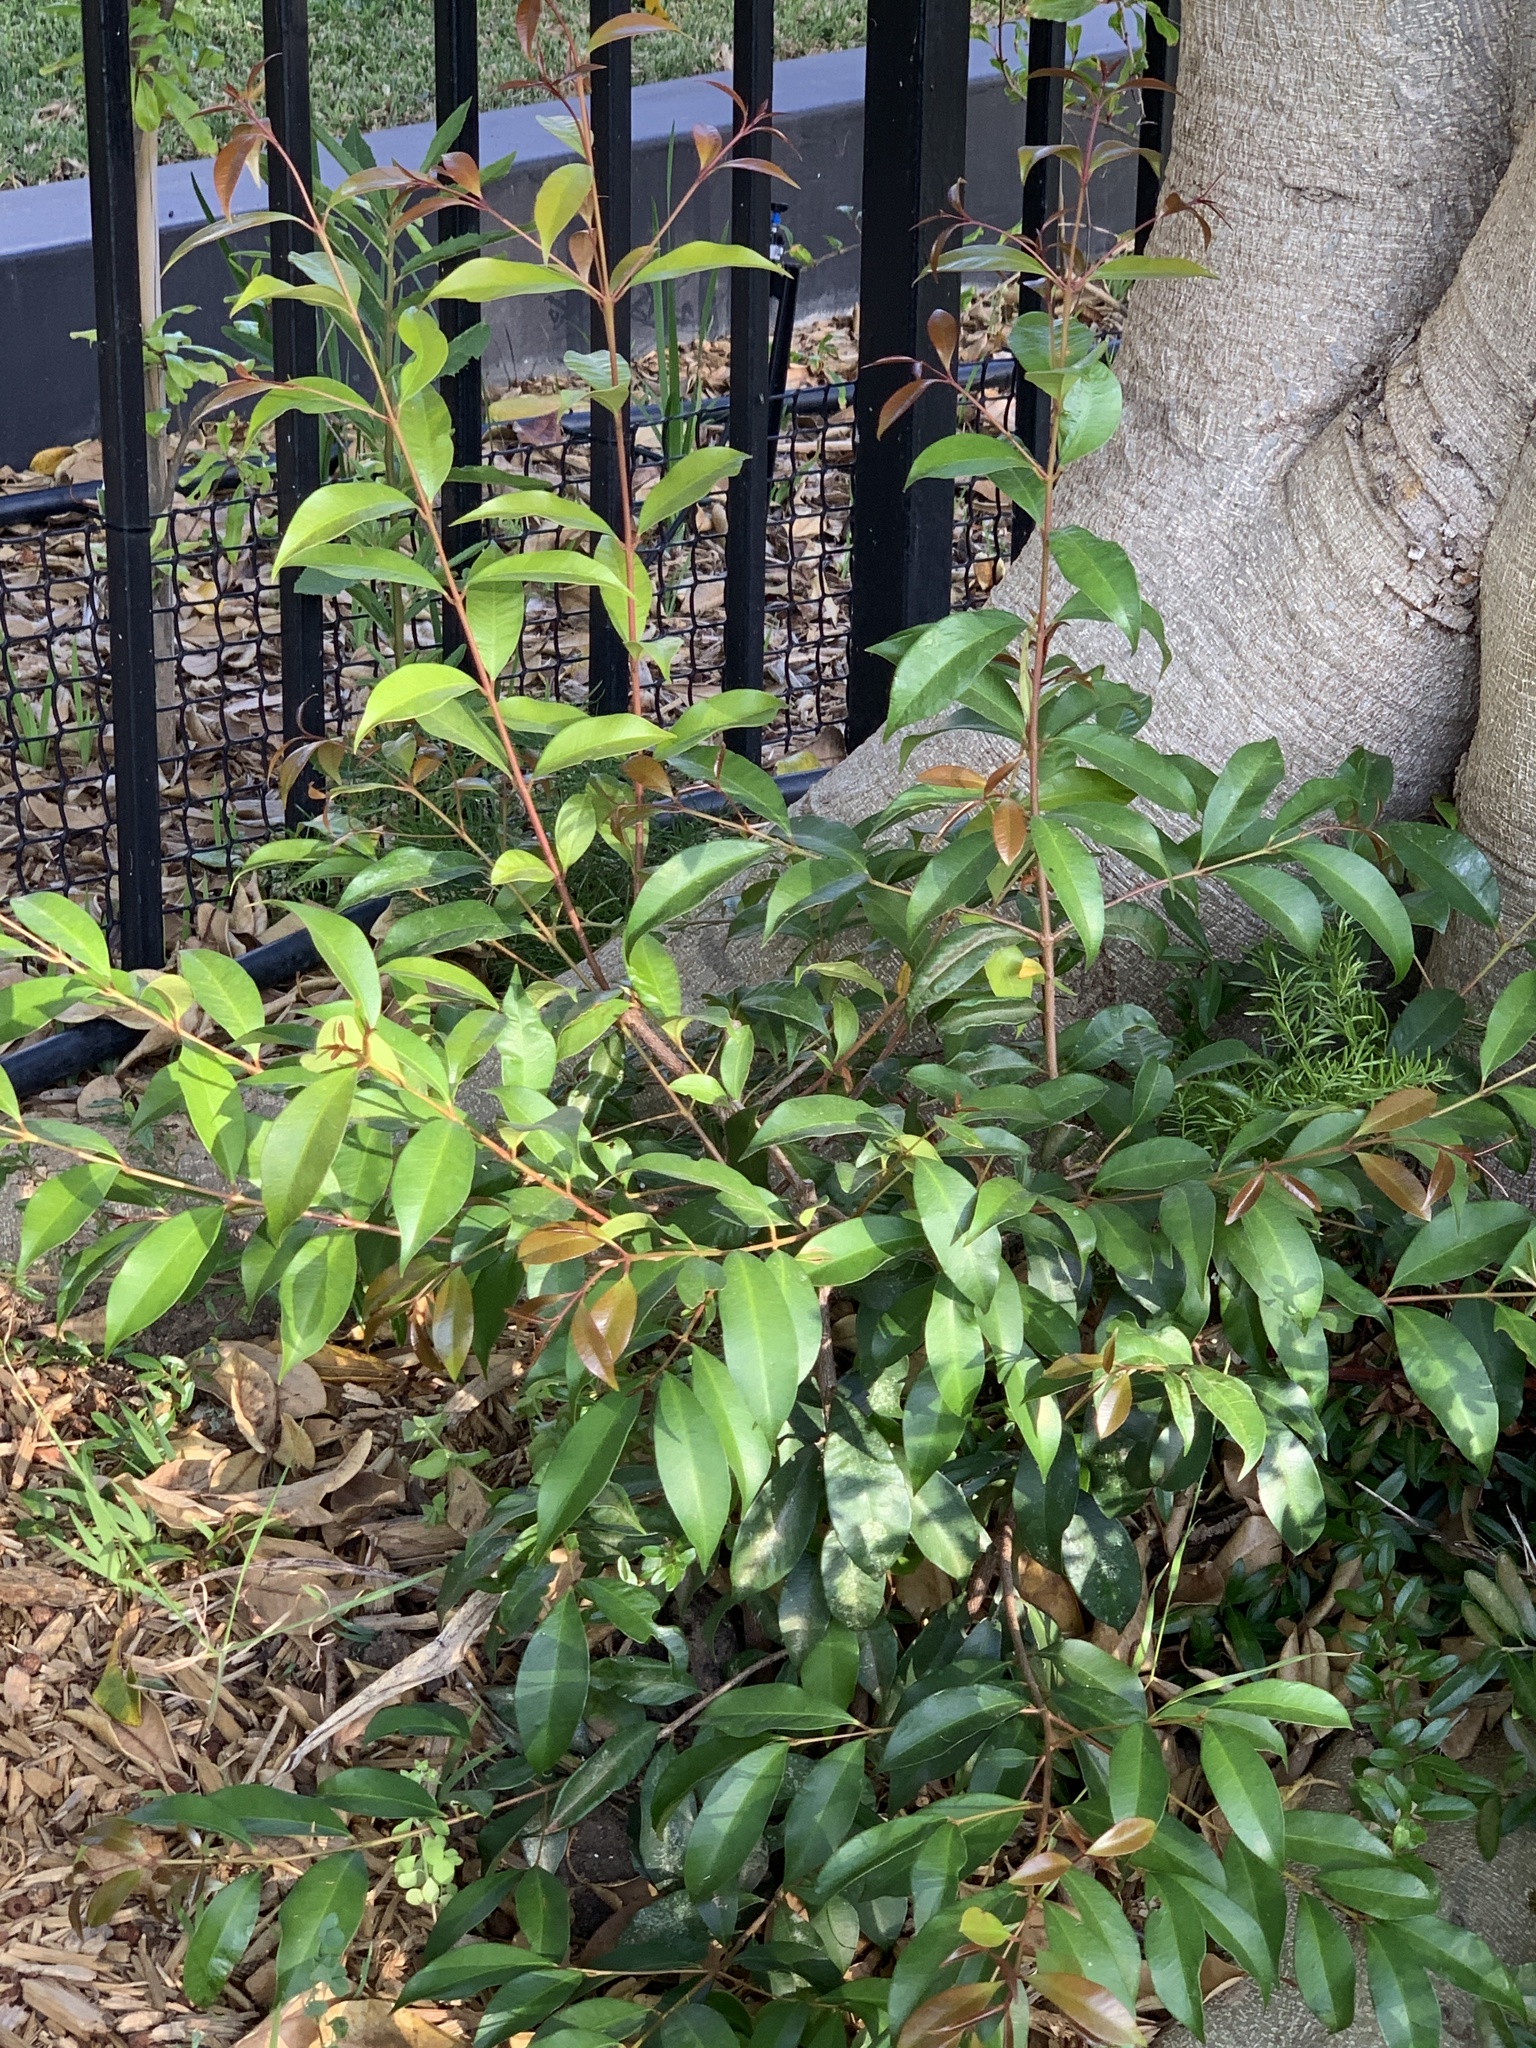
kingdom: Plantae
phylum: Tracheophyta
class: Magnoliopsida
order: Myrtales
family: Myrtaceae
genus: Syzygium
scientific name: Syzygium australe
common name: Australian brush-cherry
